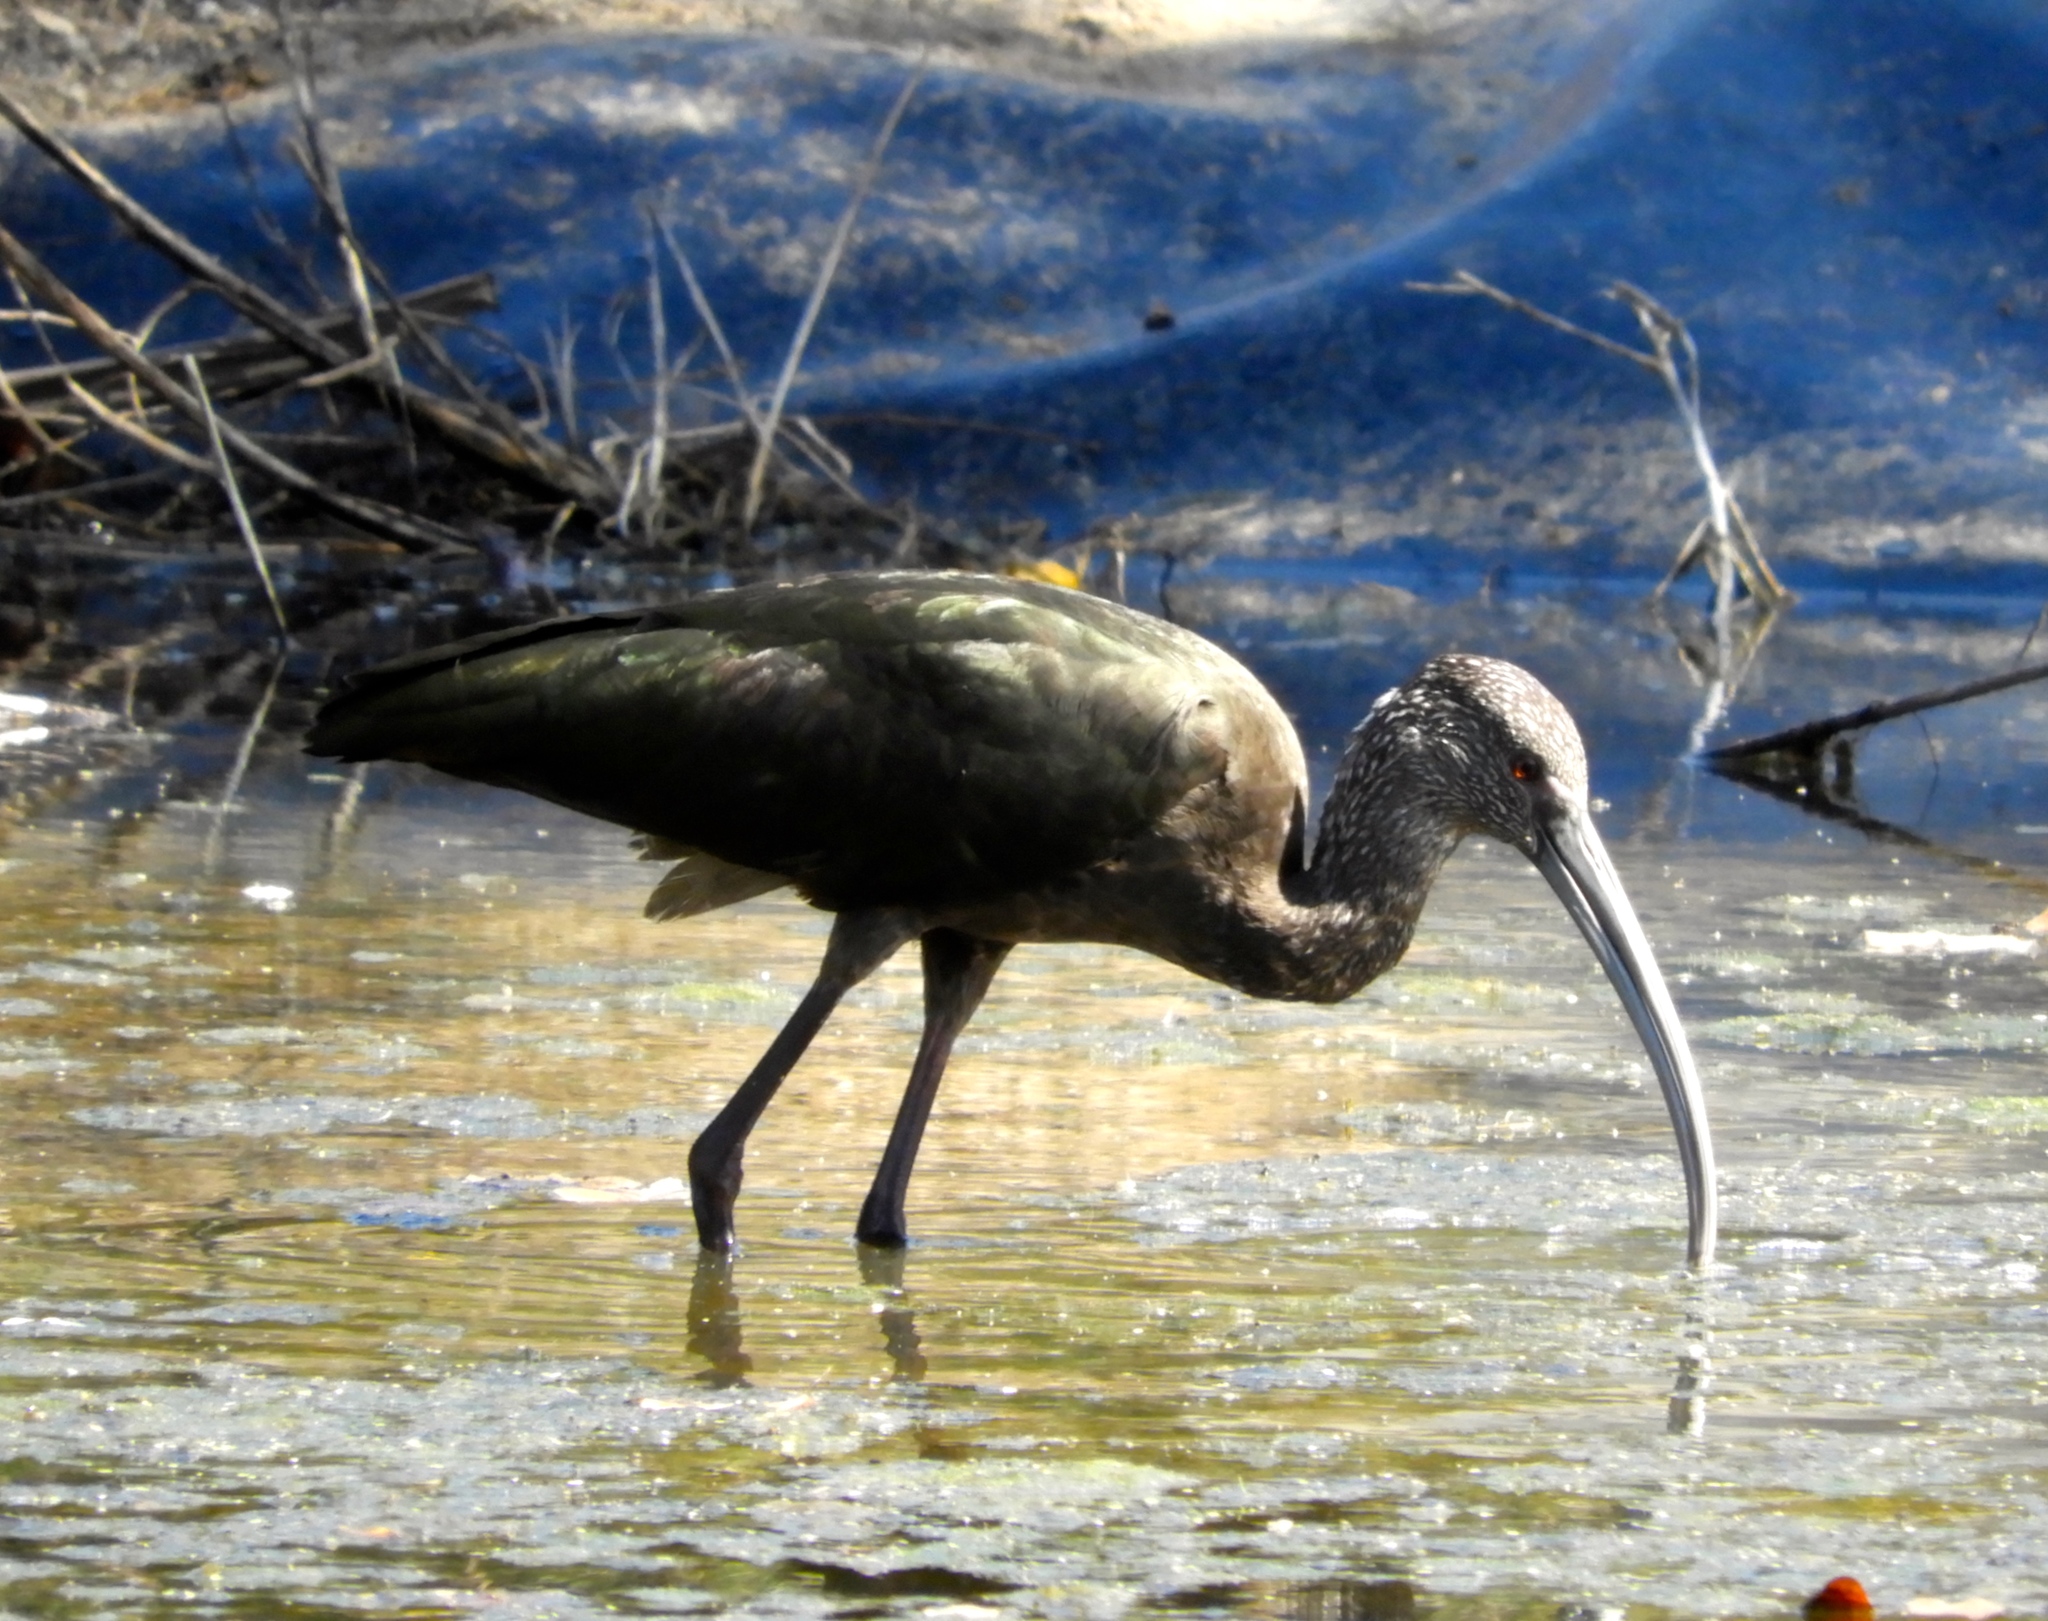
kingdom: Animalia
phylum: Chordata
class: Aves
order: Pelecaniformes
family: Threskiornithidae
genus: Plegadis
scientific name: Plegadis chihi
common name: White-faced ibis
